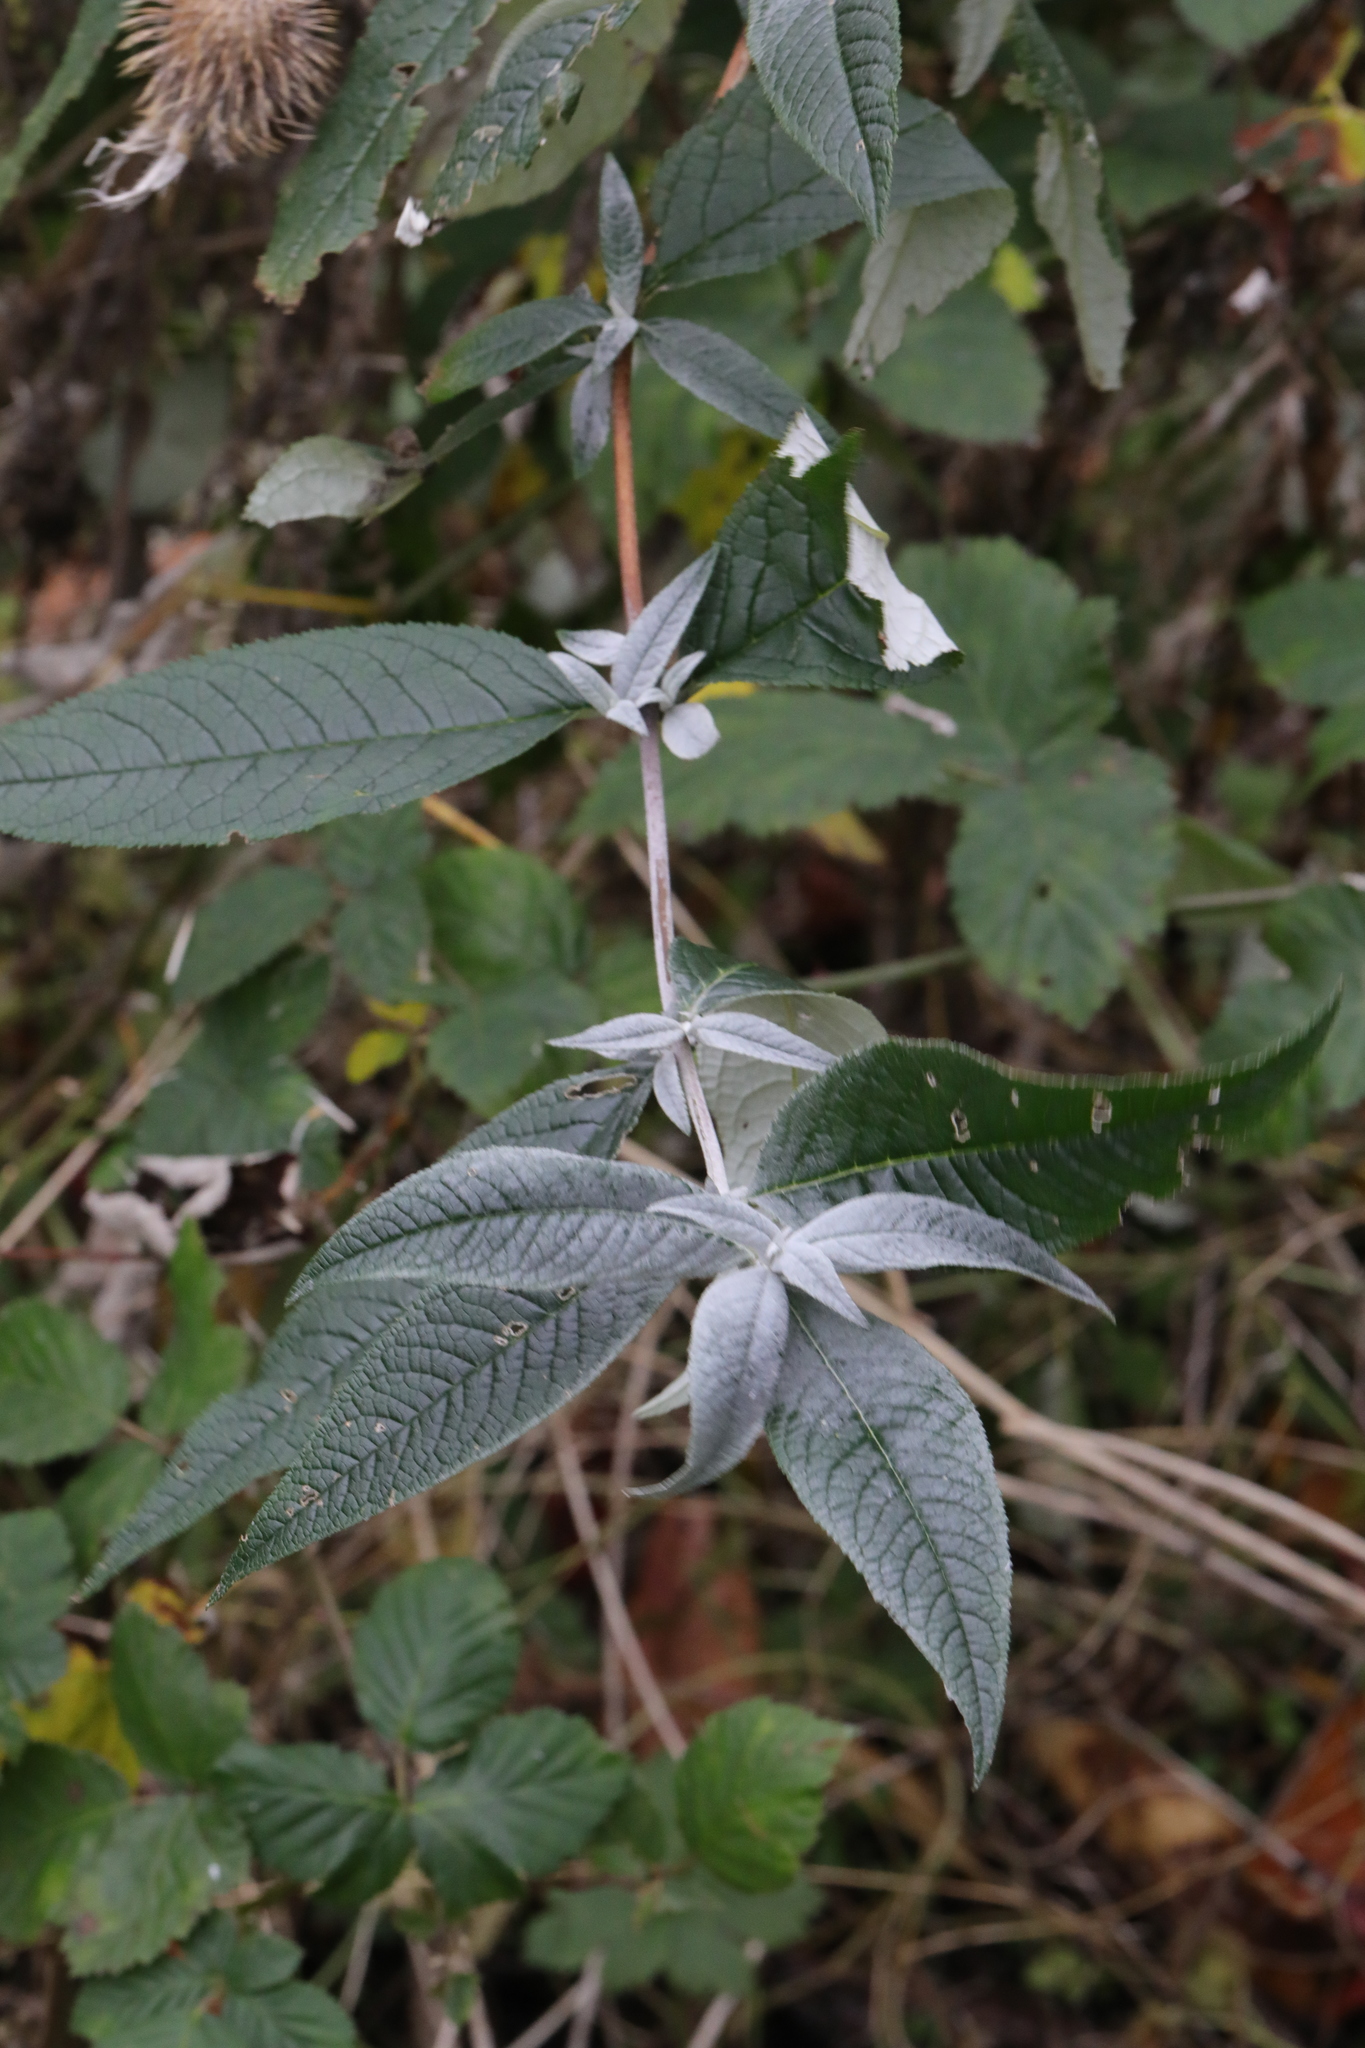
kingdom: Plantae
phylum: Tracheophyta
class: Magnoliopsida
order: Lamiales
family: Scrophulariaceae
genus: Buddleja
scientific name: Buddleja davidii
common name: Butterfly-bush
